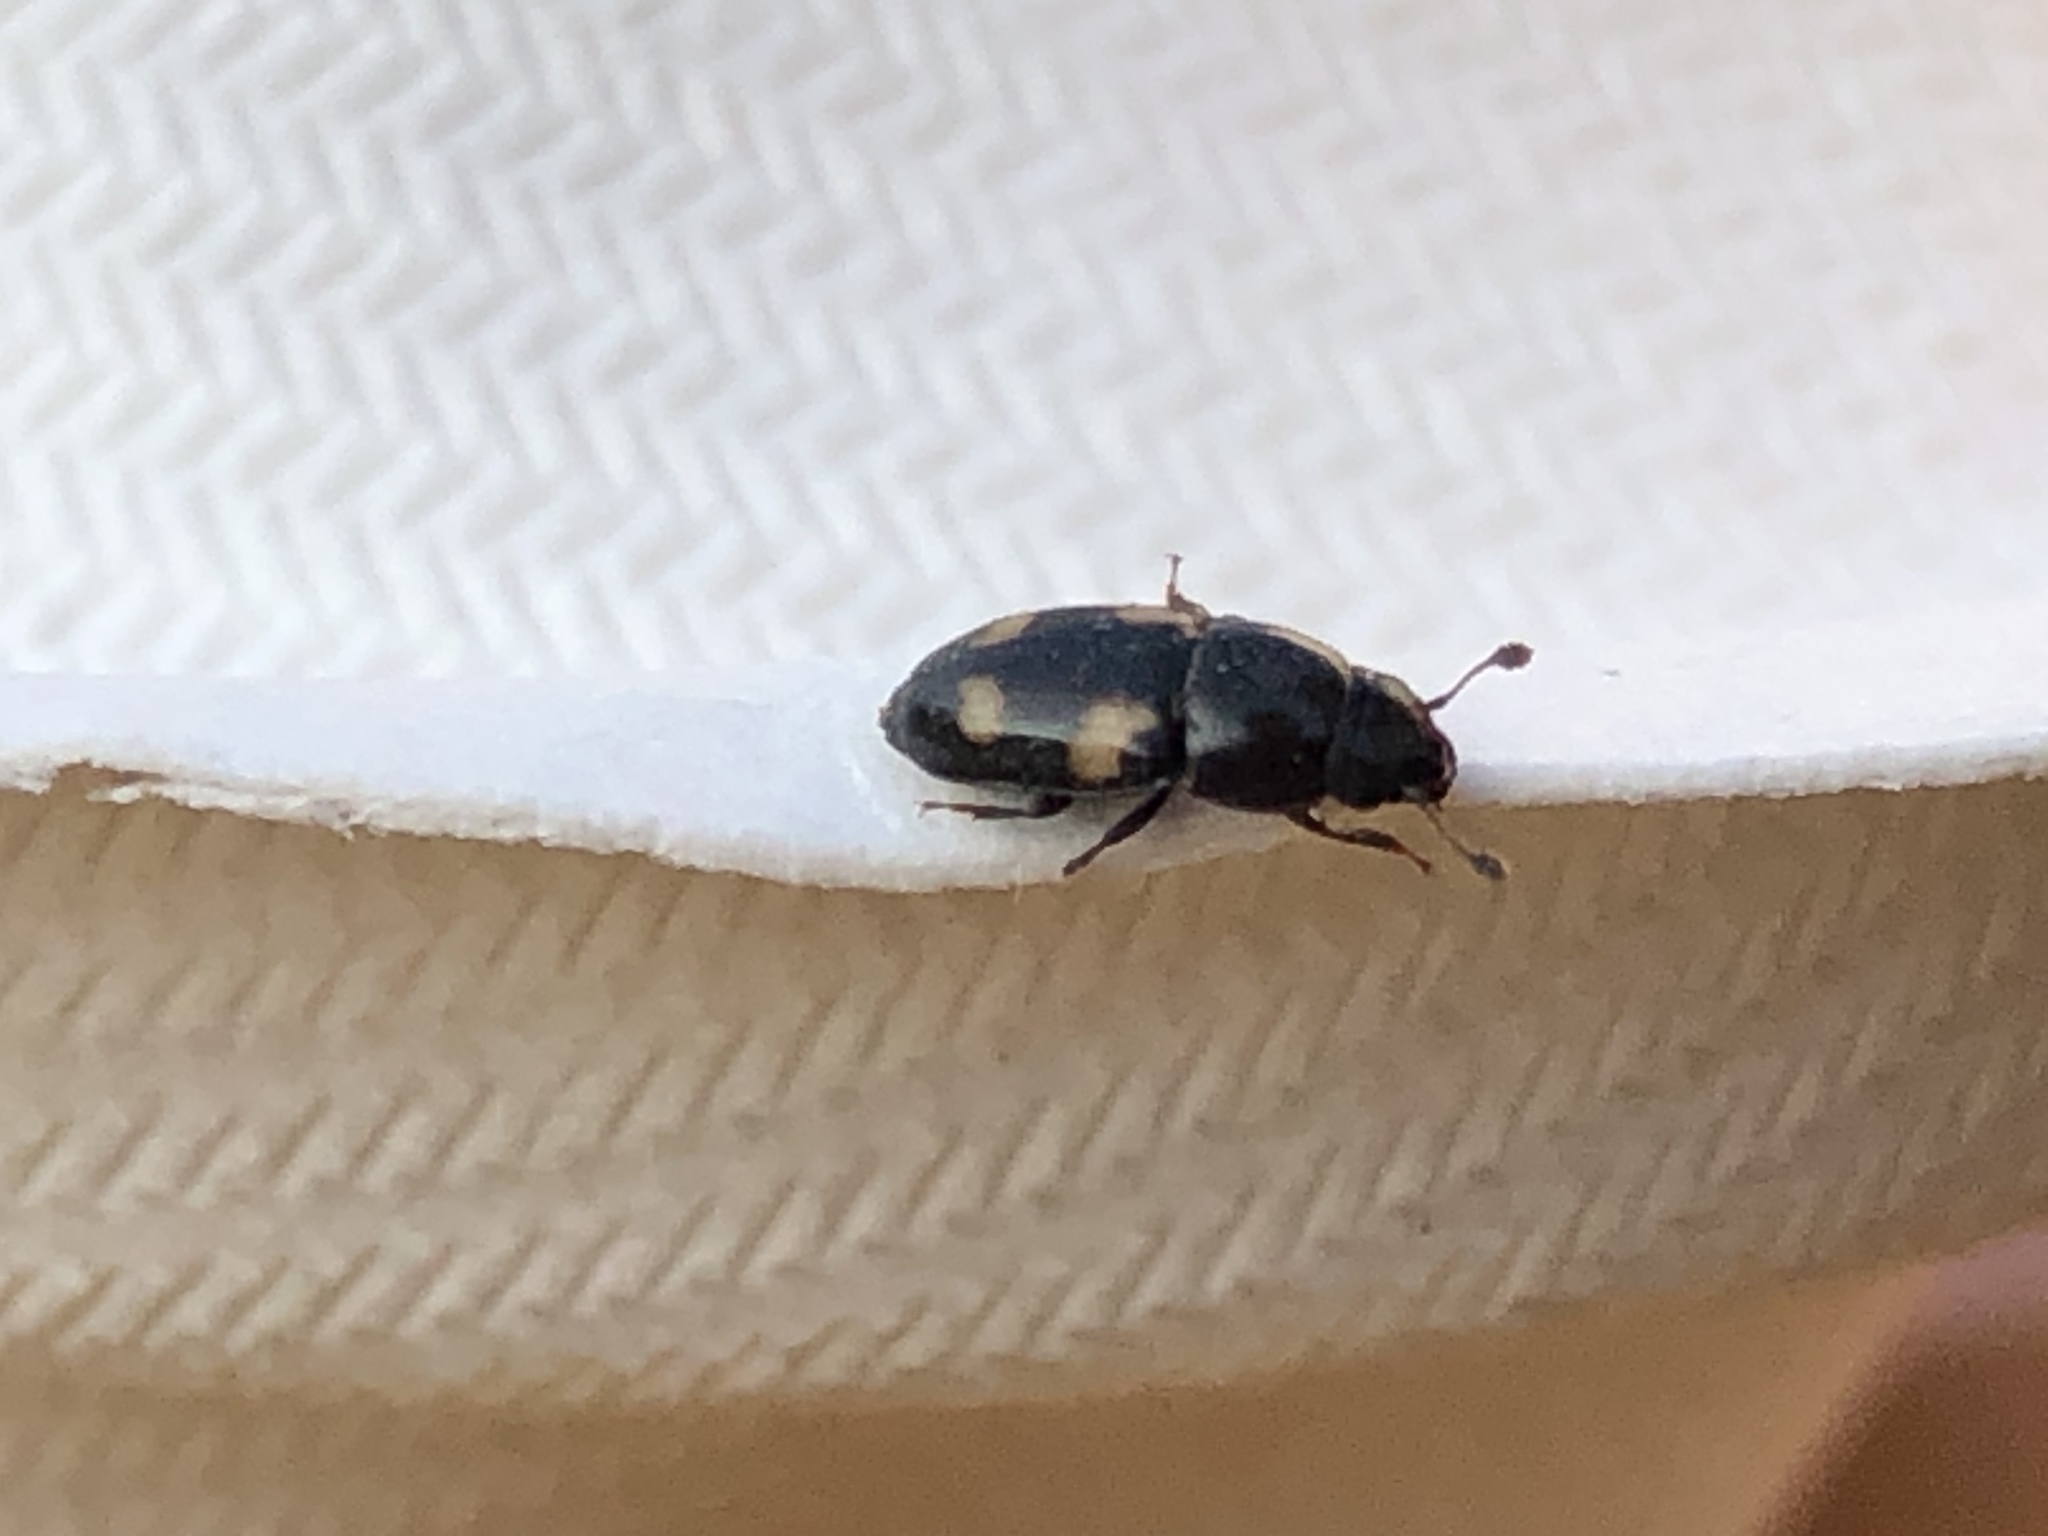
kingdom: Animalia
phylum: Arthropoda
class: Insecta
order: Coleoptera
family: Nitidulidae
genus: Glischrochilus
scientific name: Glischrochilus quadrisignatus
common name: Picnic beetle
